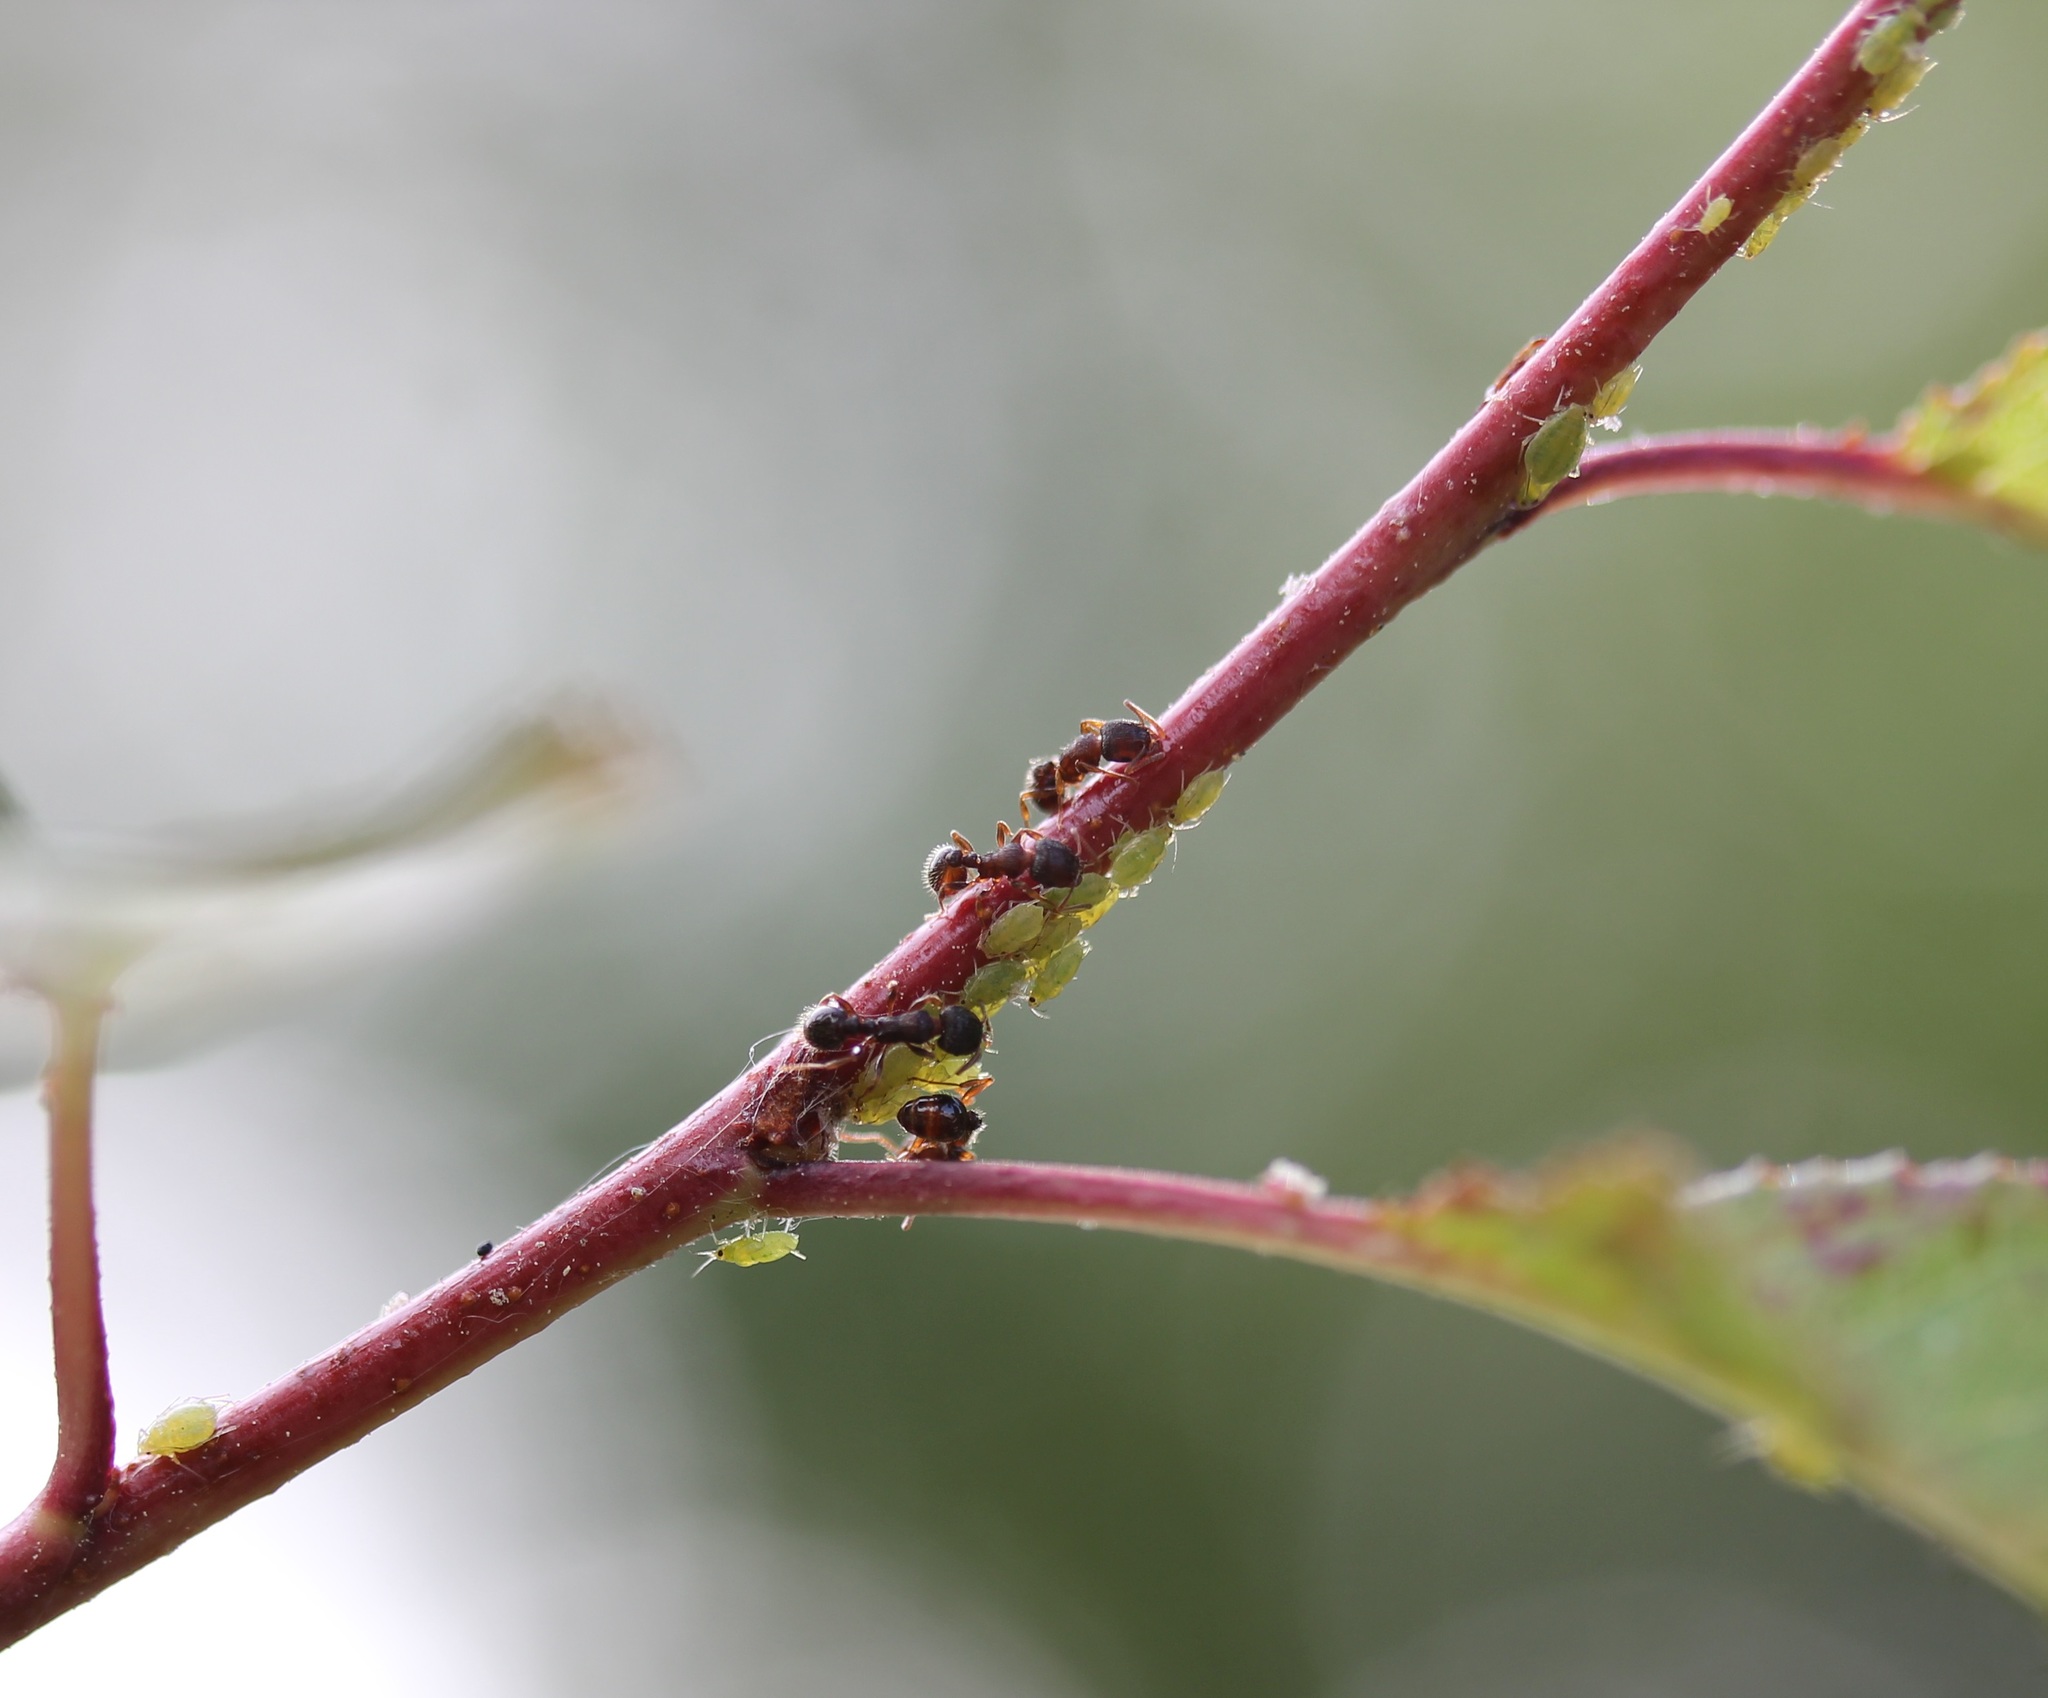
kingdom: Animalia
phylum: Arthropoda
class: Insecta
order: Hymenoptera
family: Formicidae
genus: Tetramorium
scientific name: Tetramorium immigrans
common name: Pavement ant
